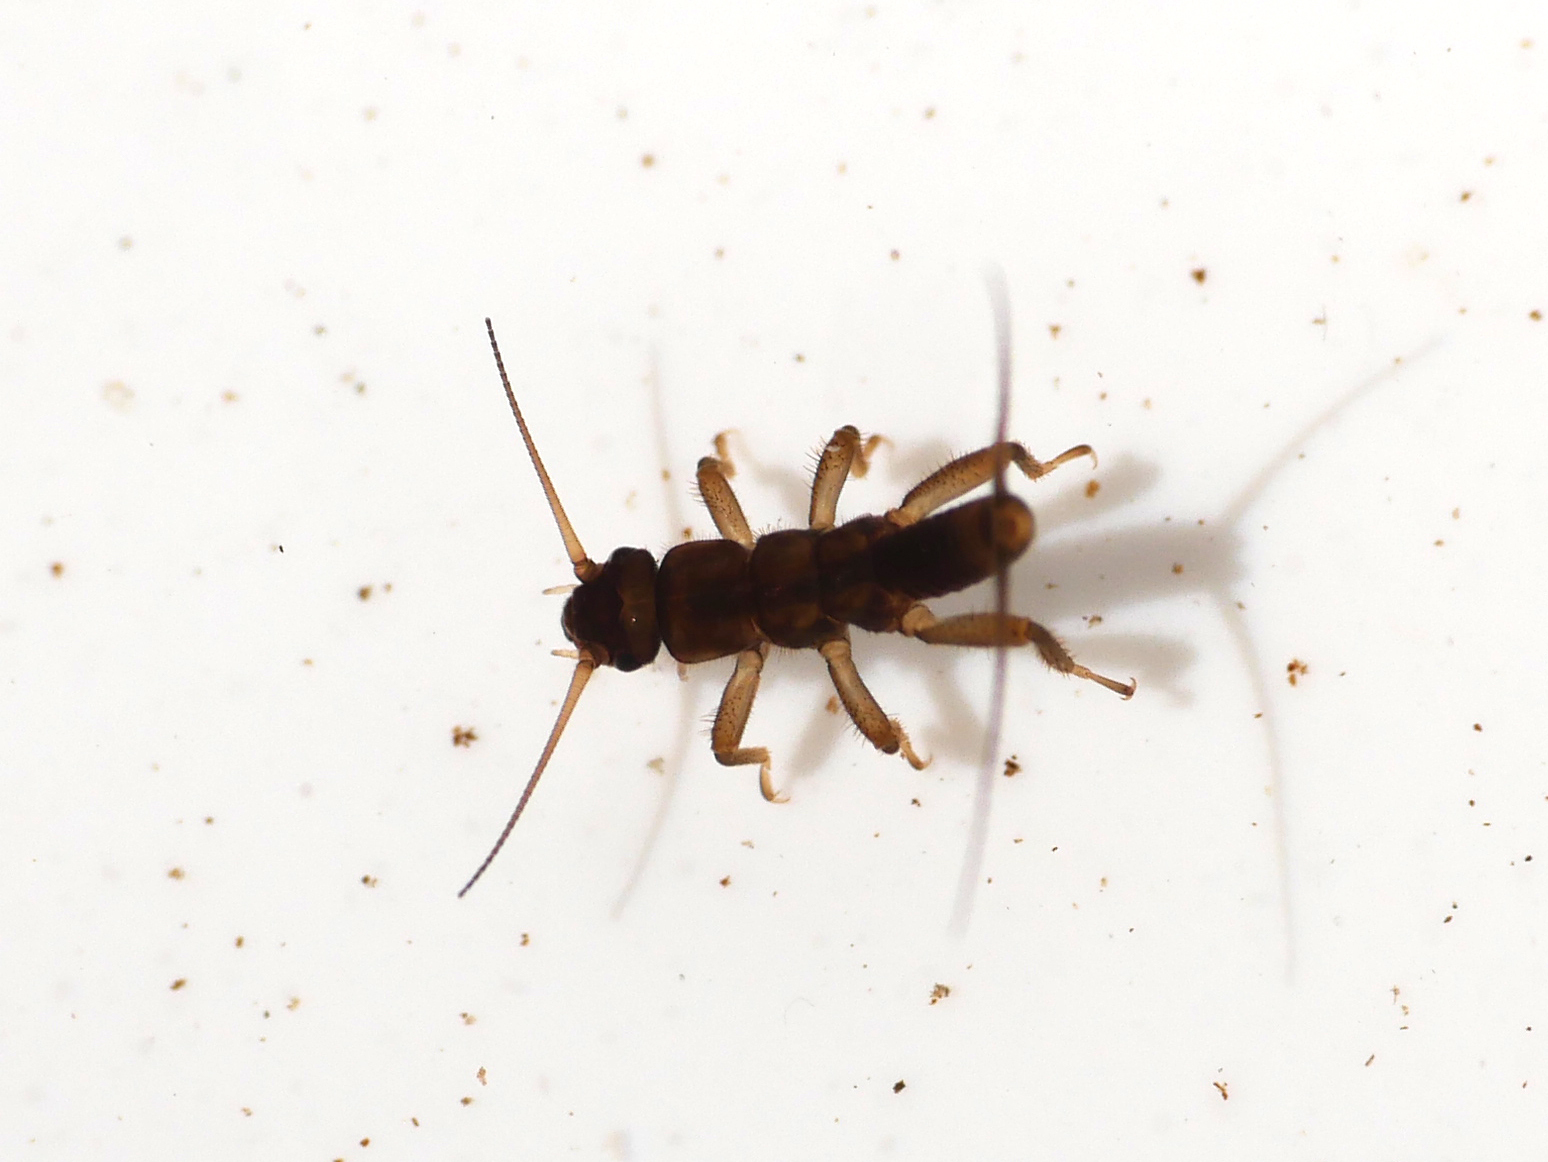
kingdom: Animalia
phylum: Arthropoda
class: Insecta
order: Plecoptera
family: Nemouridae
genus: Protonemura
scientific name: Protonemura hrabei
